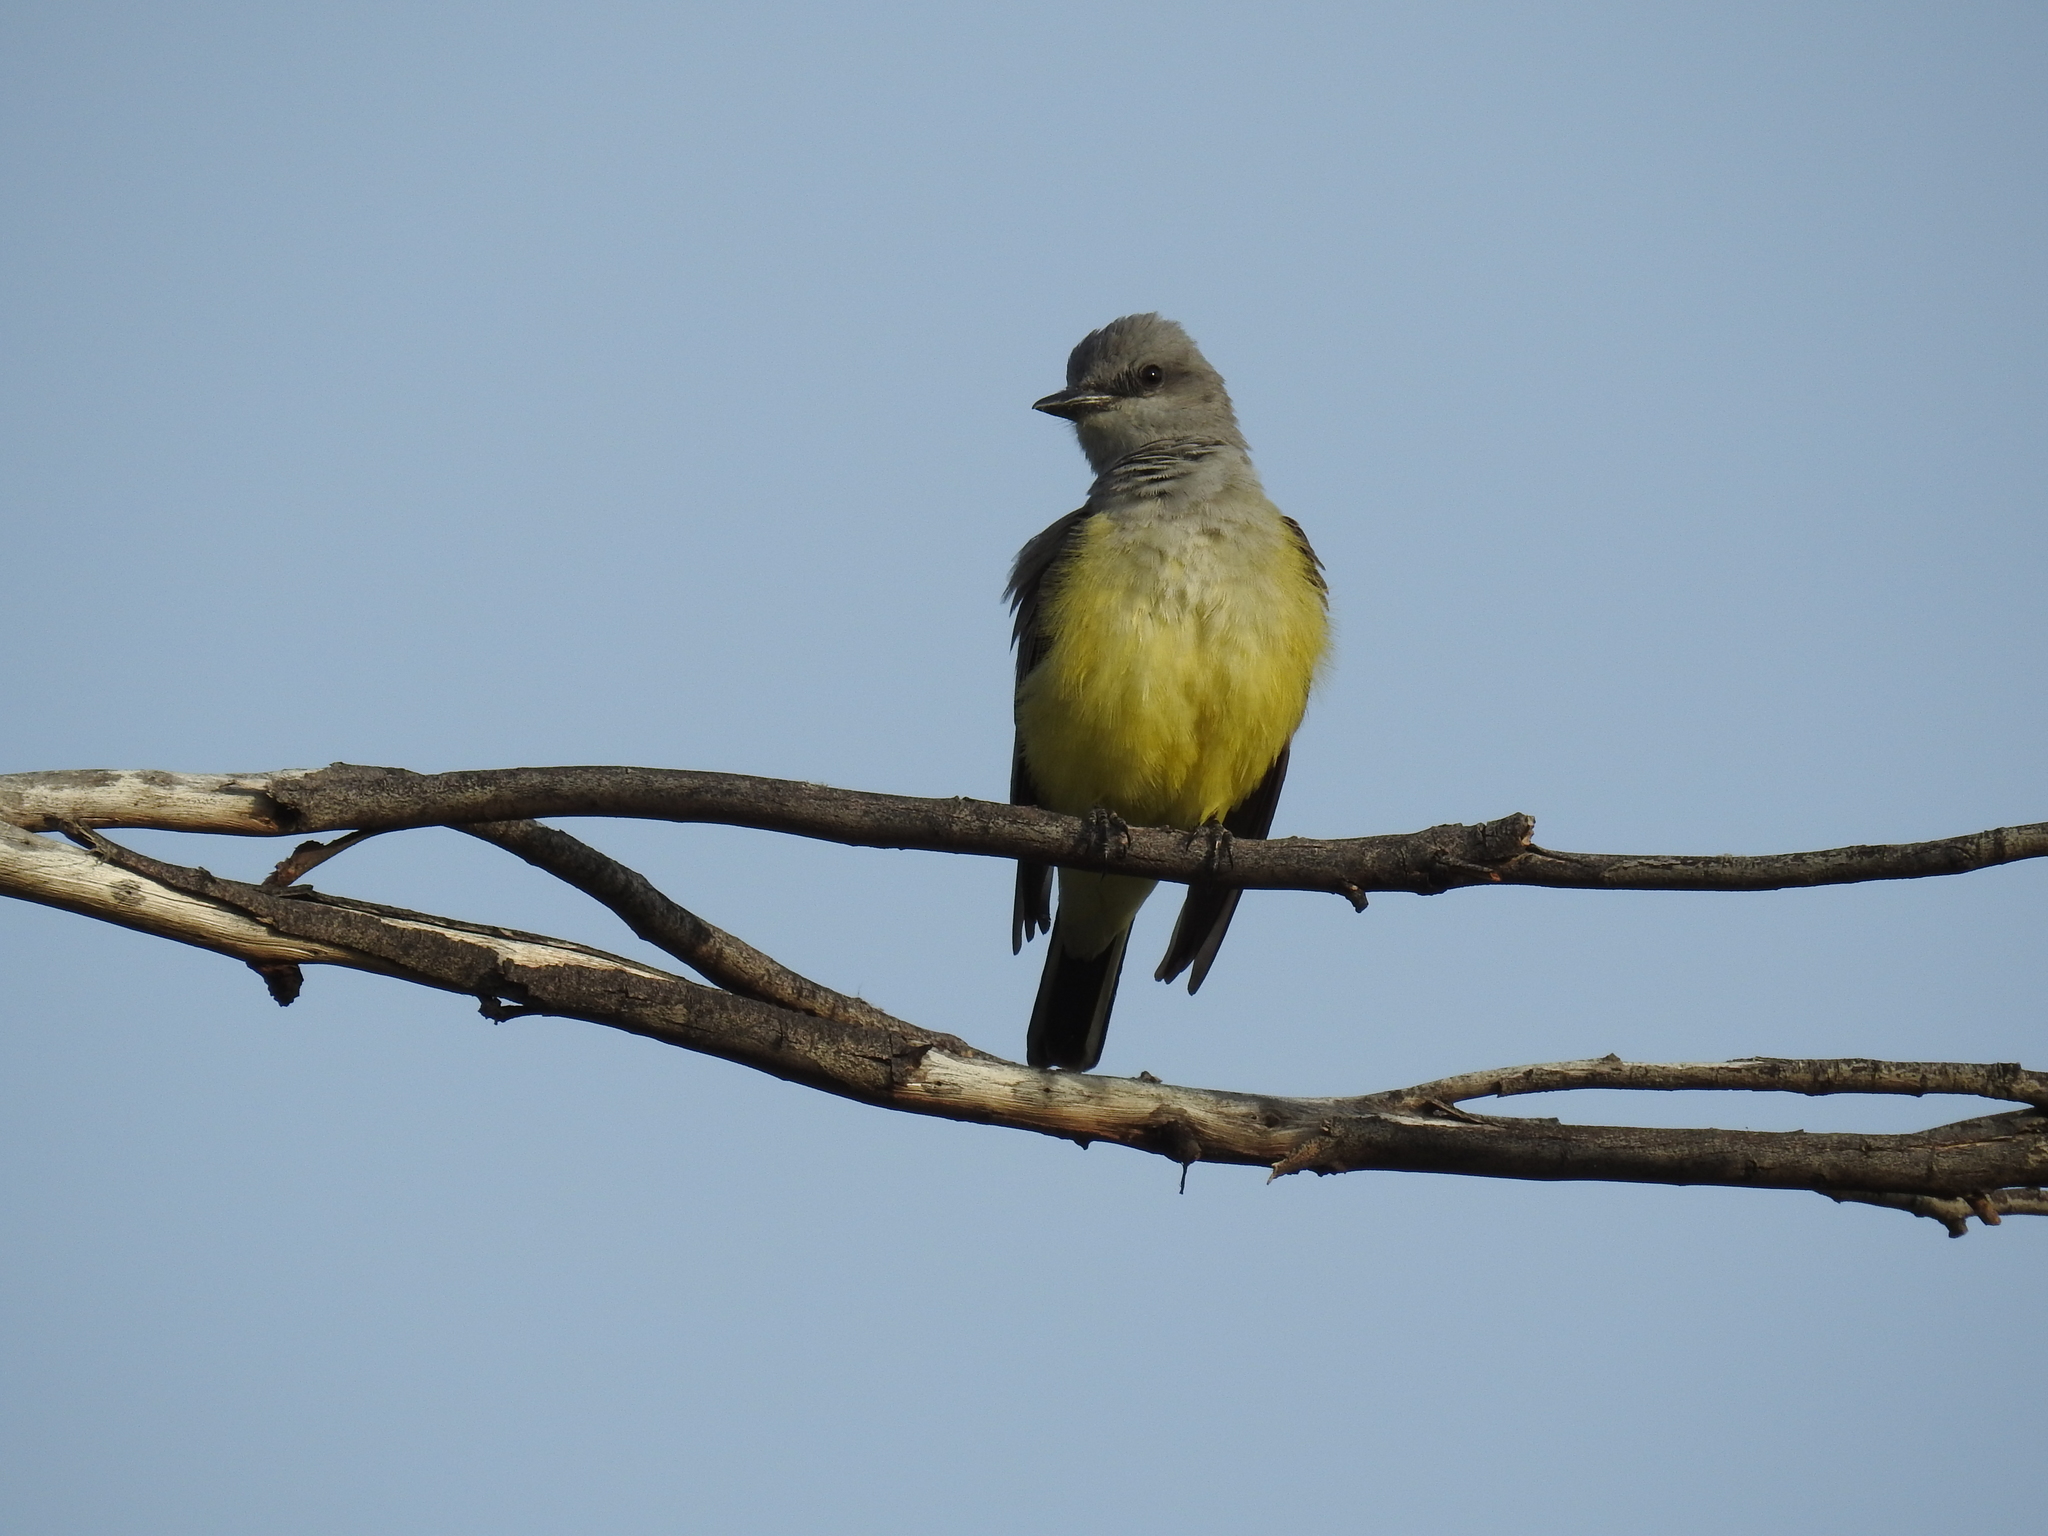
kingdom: Animalia
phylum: Chordata
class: Aves
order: Passeriformes
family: Tyrannidae
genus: Tyrannus
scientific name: Tyrannus verticalis
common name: Western kingbird
